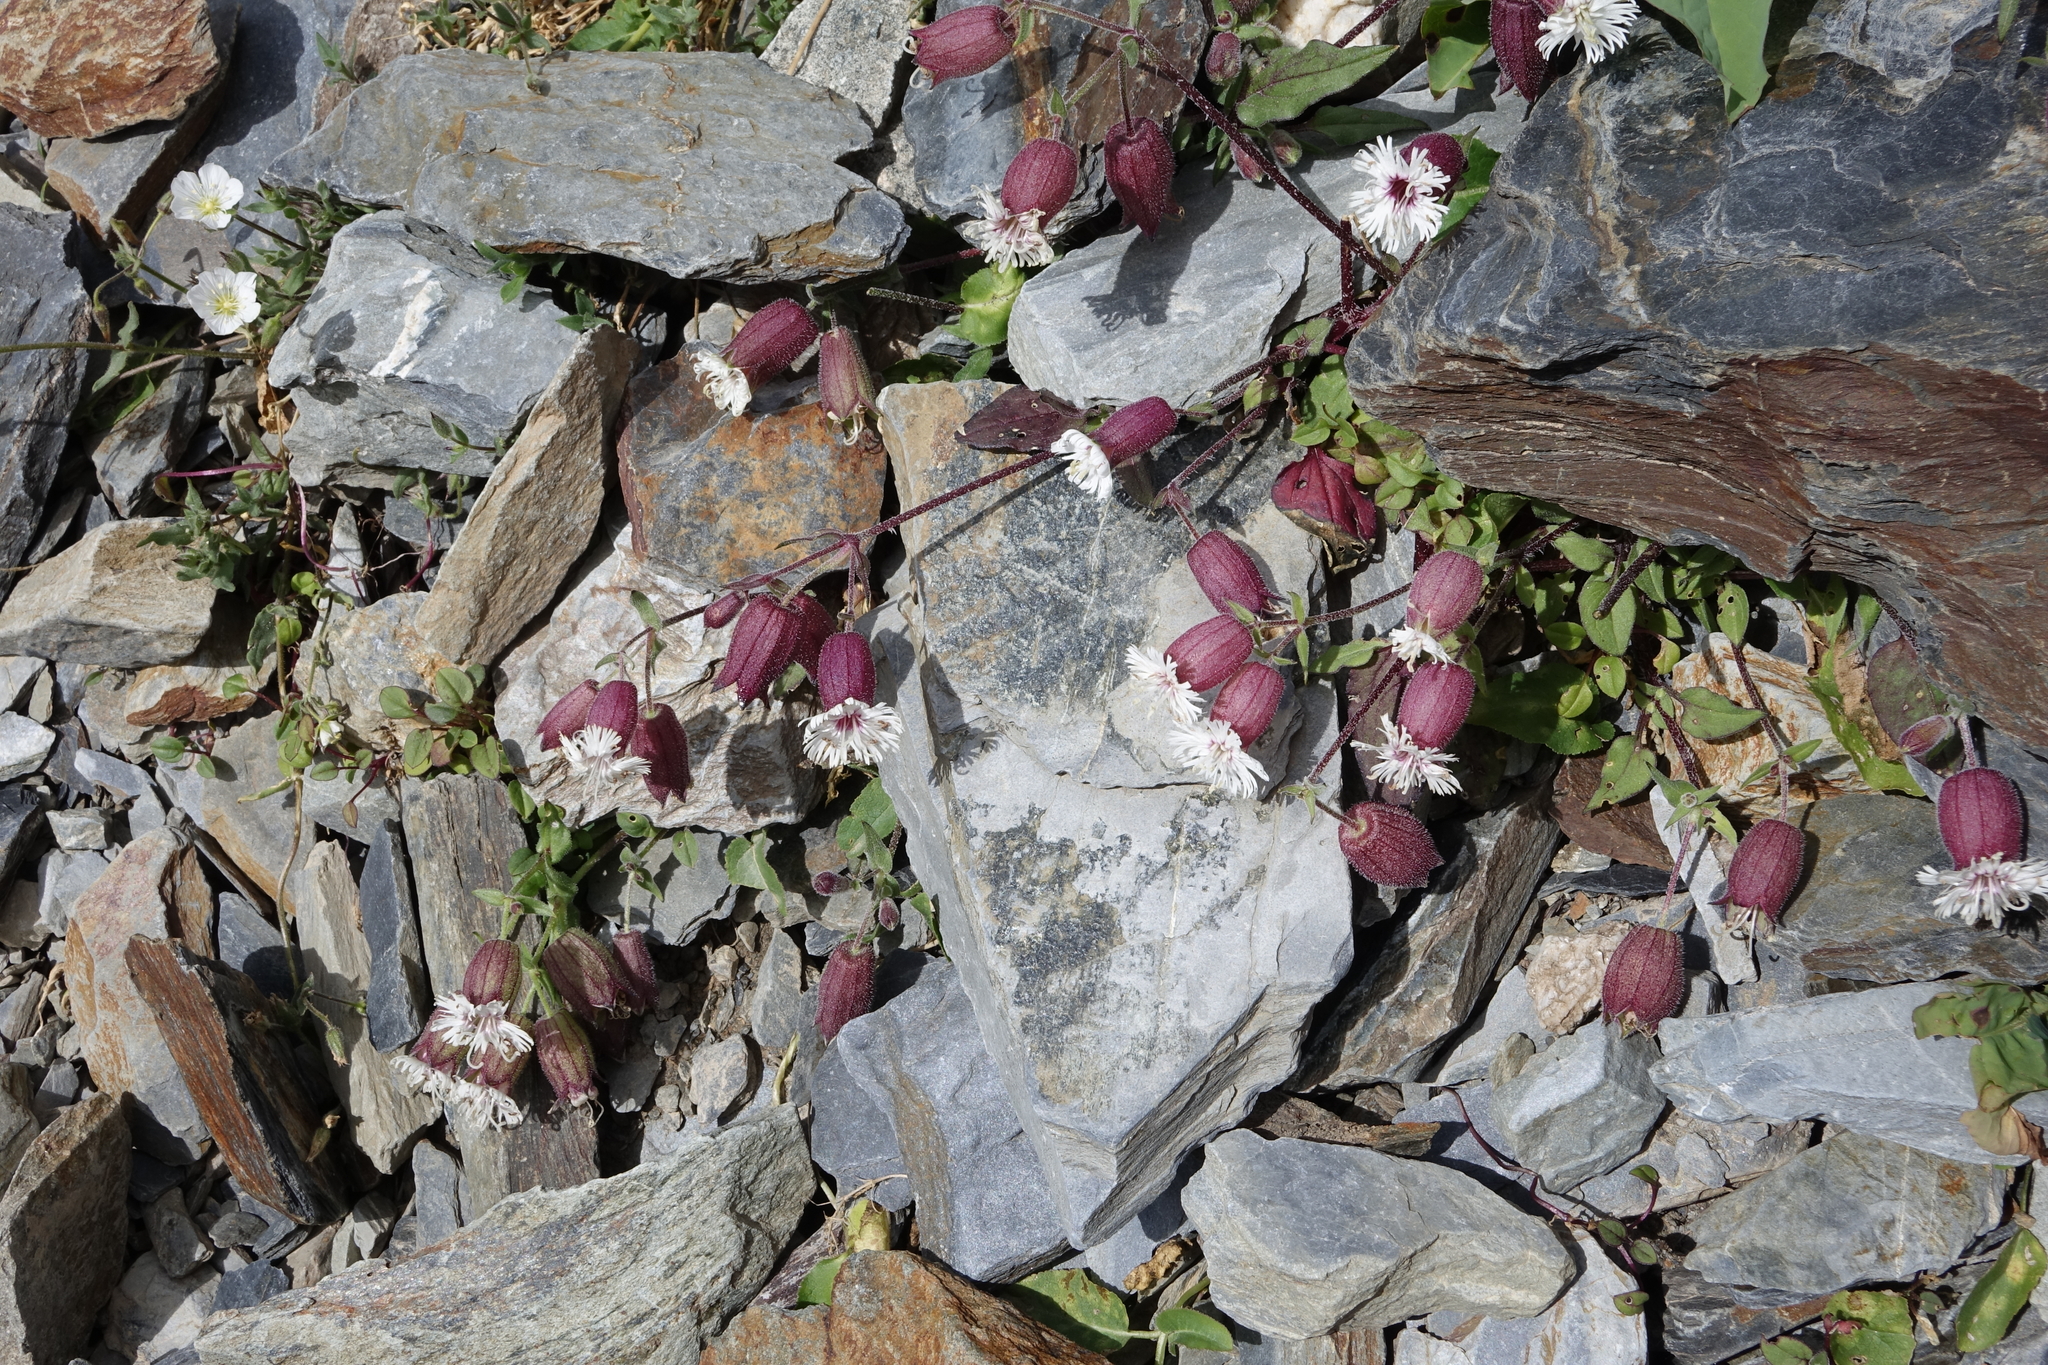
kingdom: Plantae
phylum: Tracheophyta
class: Magnoliopsida
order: Caryophyllales
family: Caryophyllaceae
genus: Silene
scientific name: Silene lacera
